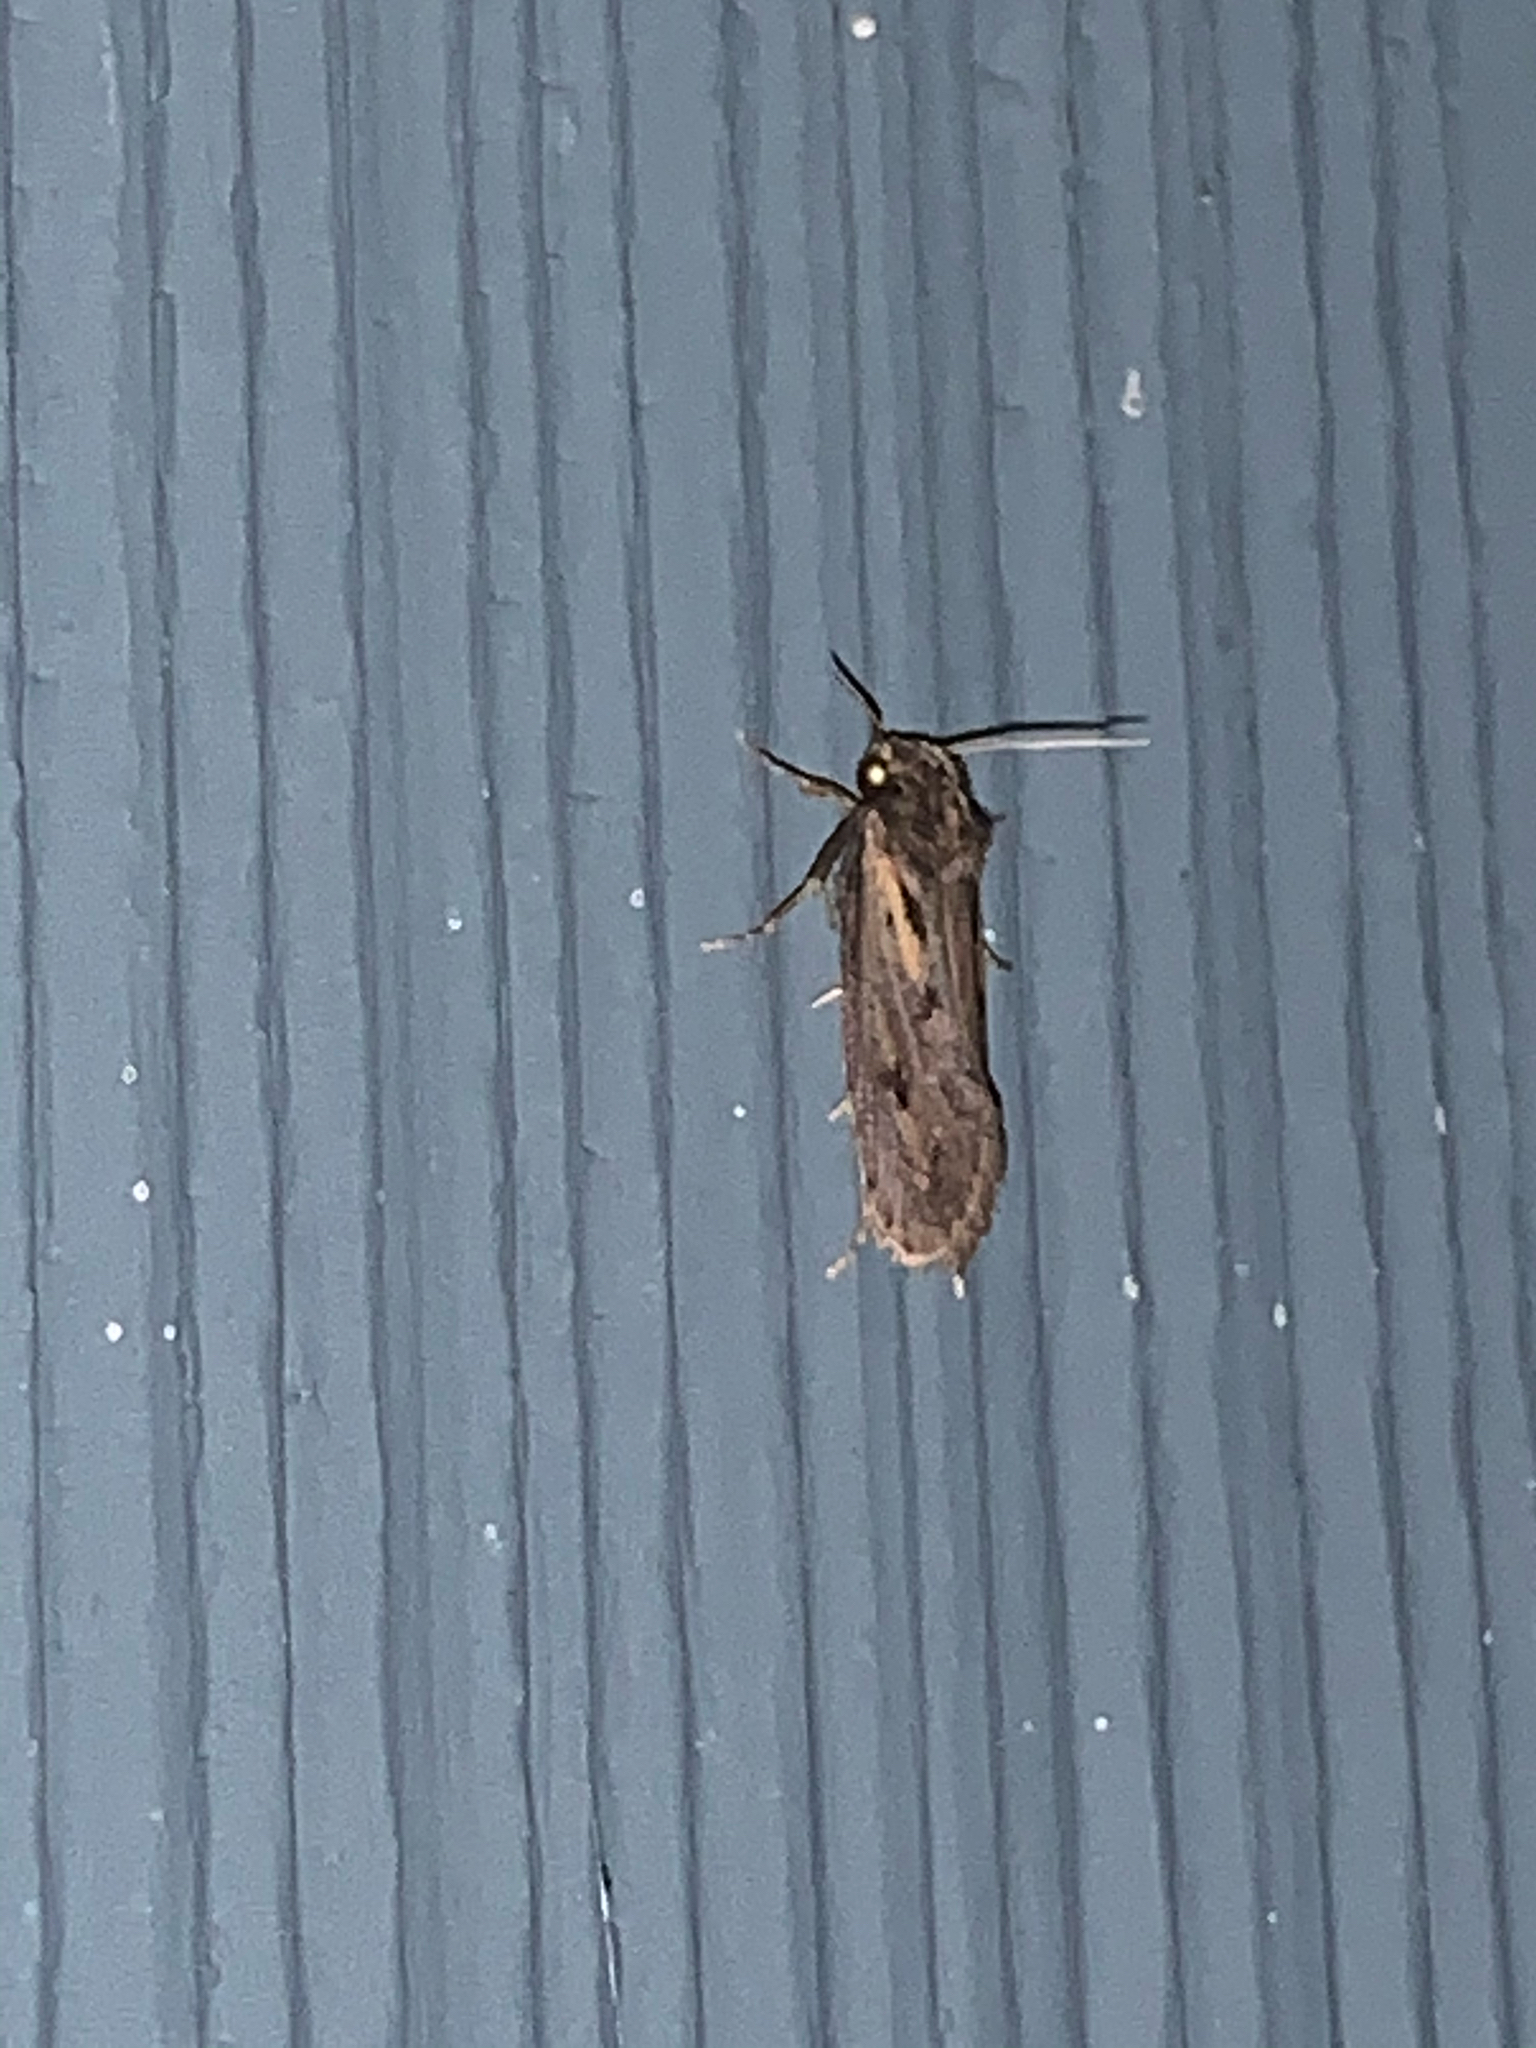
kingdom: Animalia
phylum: Arthropoda
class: Insecta
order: Lepidoptera
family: Tineidae
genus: Acrolophus
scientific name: Acrolophus popeanella
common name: Clemens' grass tubeworm moth
